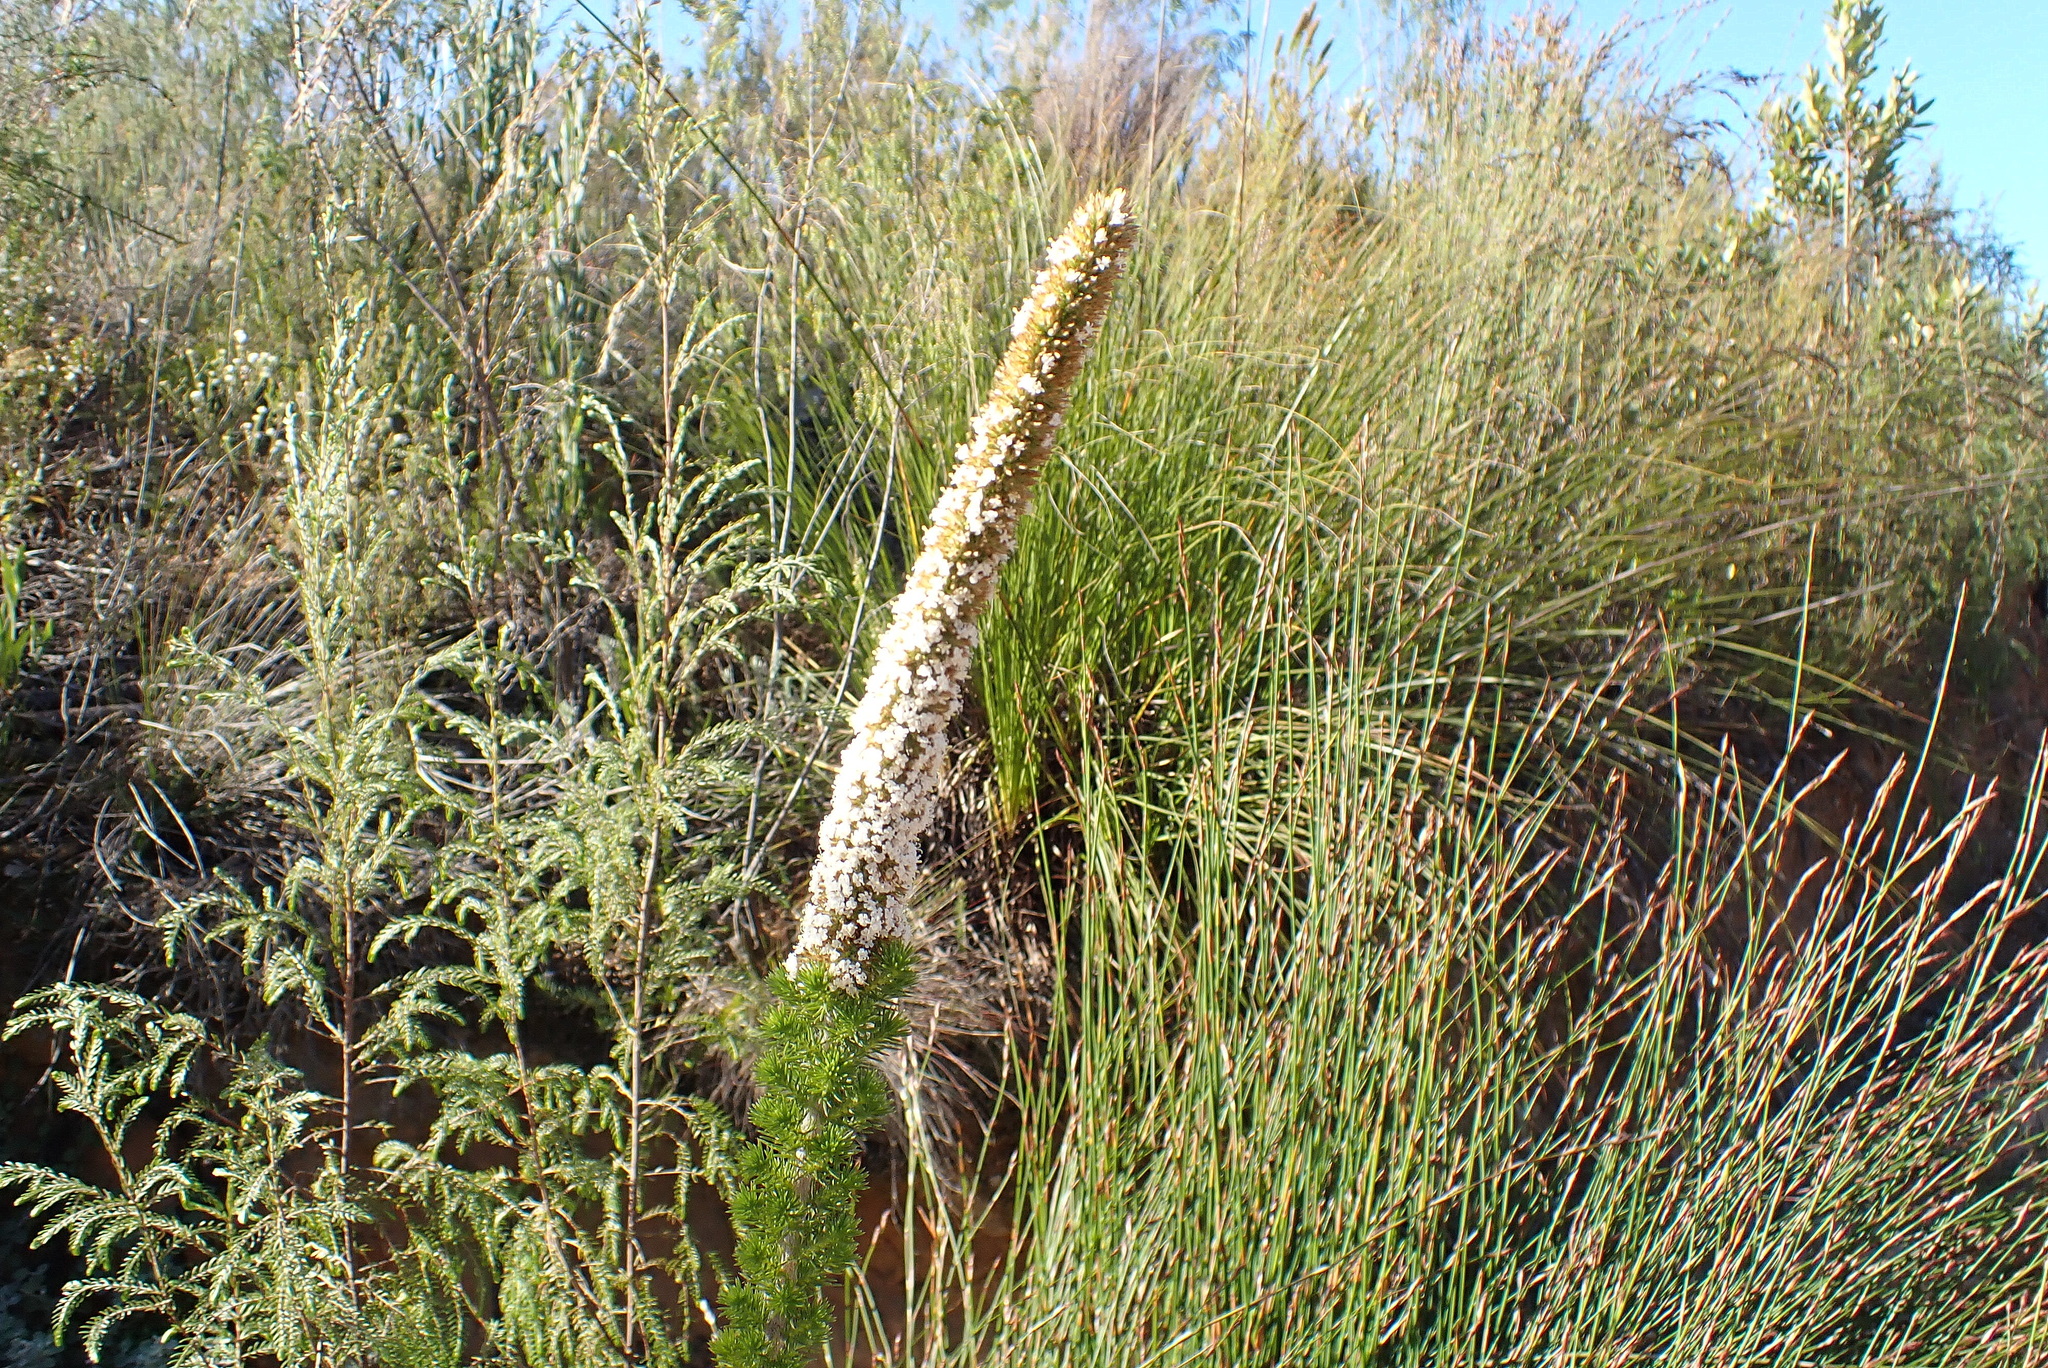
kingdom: Plantae
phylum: Tracheophyta
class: Magnoliopsida
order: Asterales
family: Asteraceae
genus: Stoebe
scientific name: Stoebe alopecuroides
